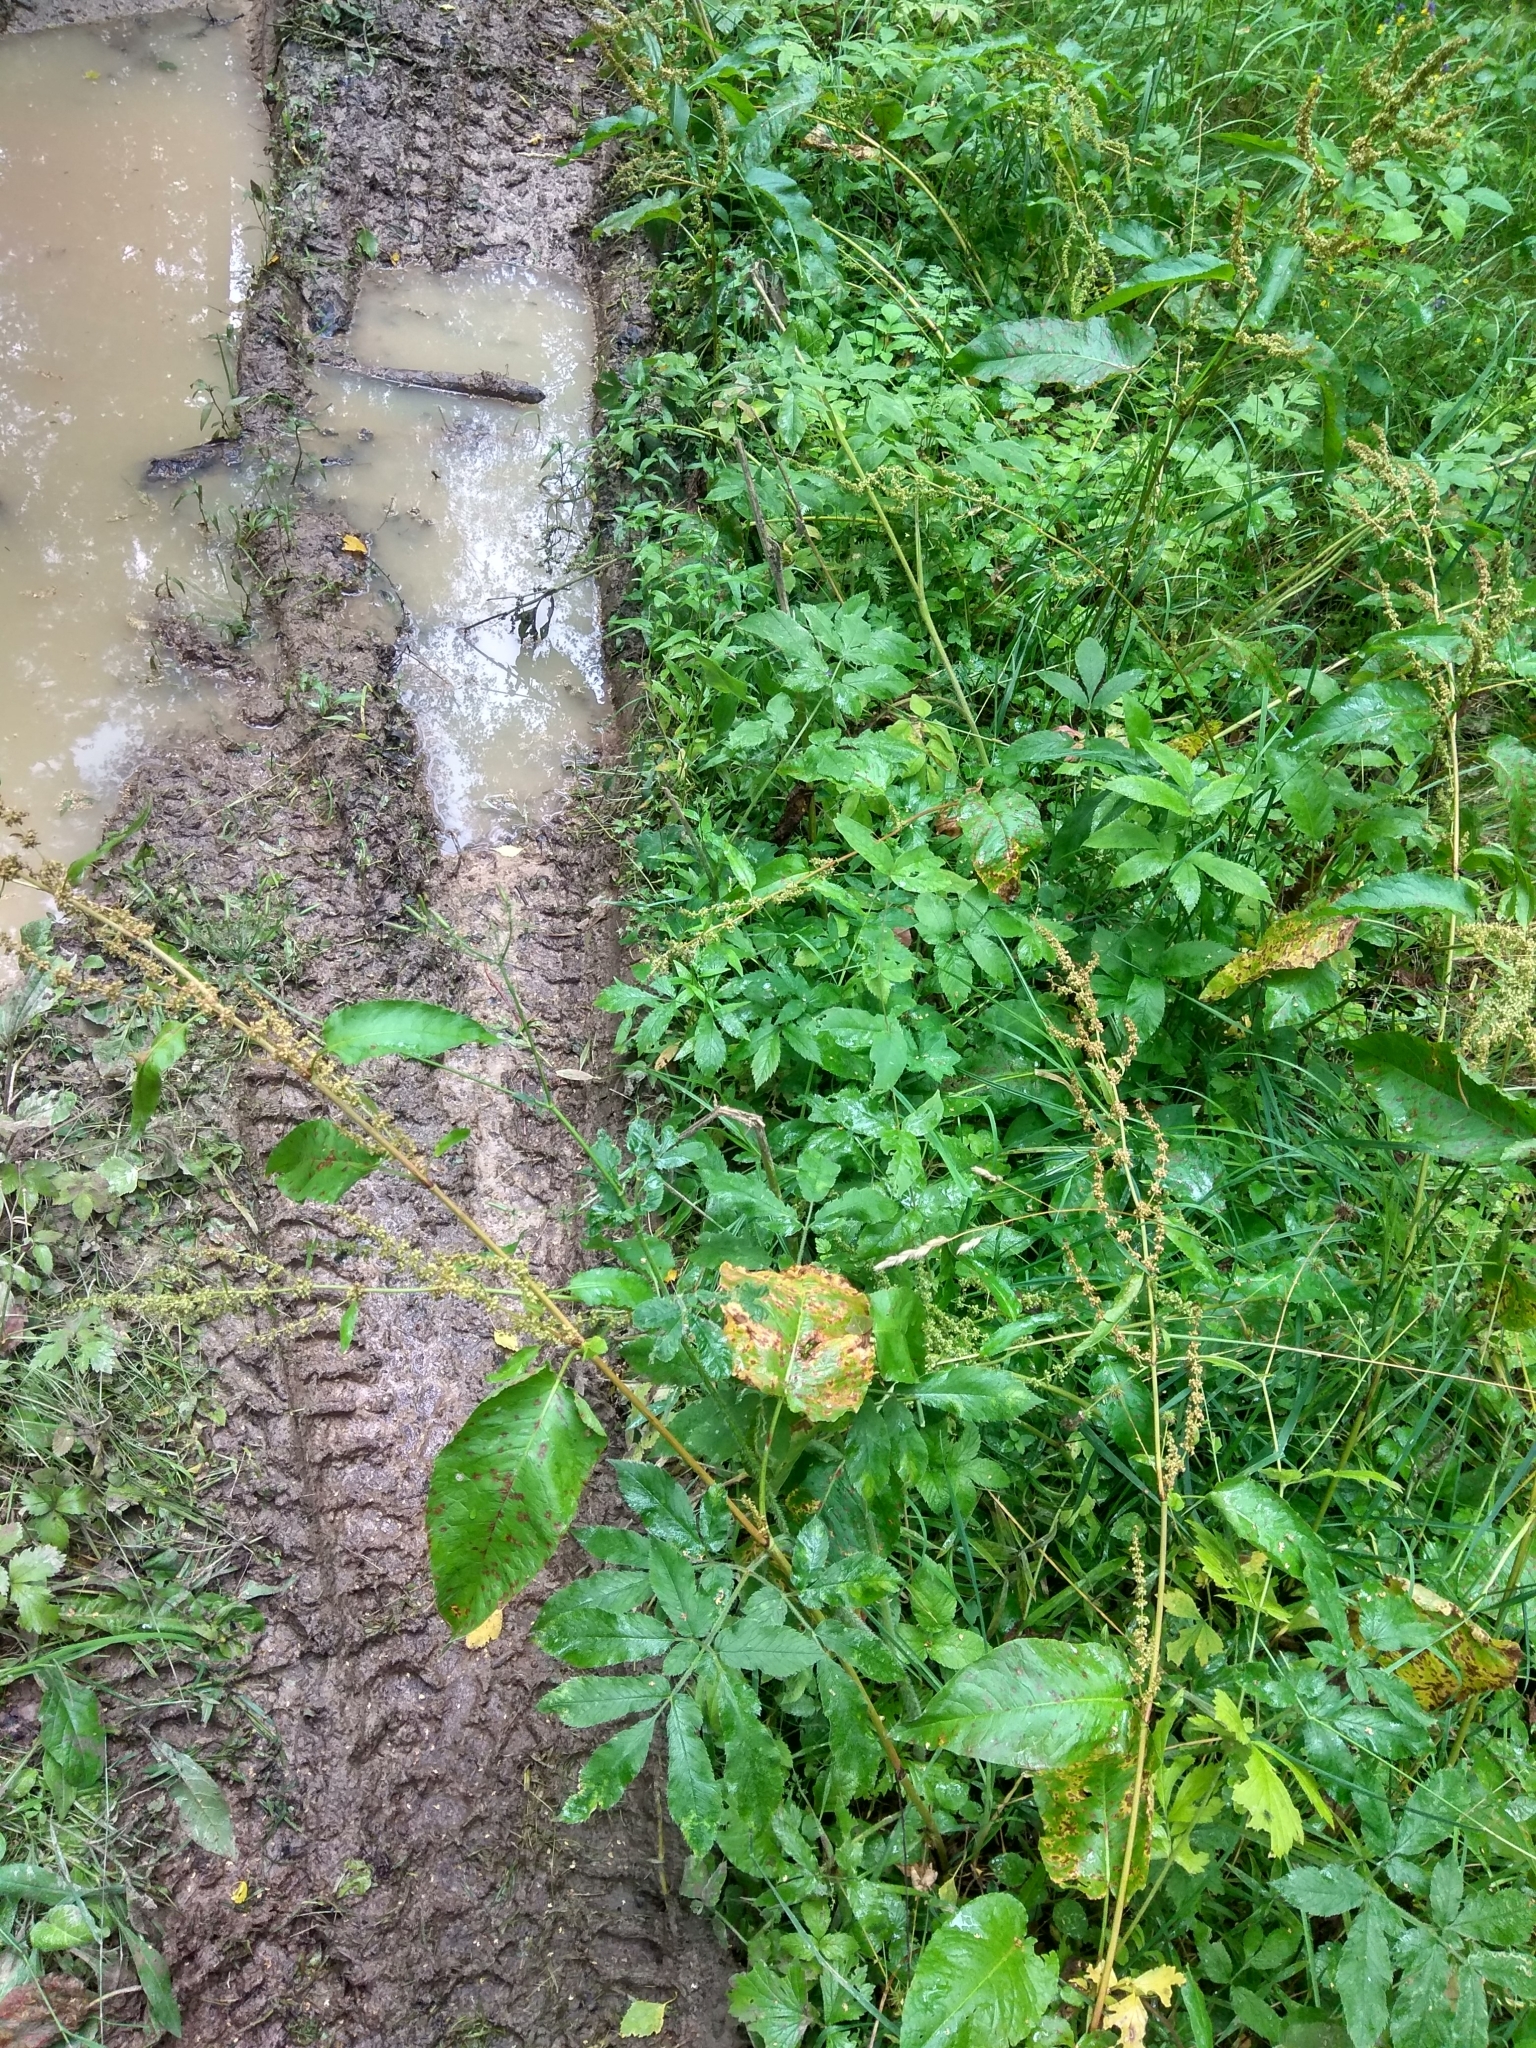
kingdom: Plantae
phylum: Tracheophyta
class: Magnoliopsida
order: Caryophyllales
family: Polygonaceae
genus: Rumex
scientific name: Rumex obtusifolius
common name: Bitter dock
